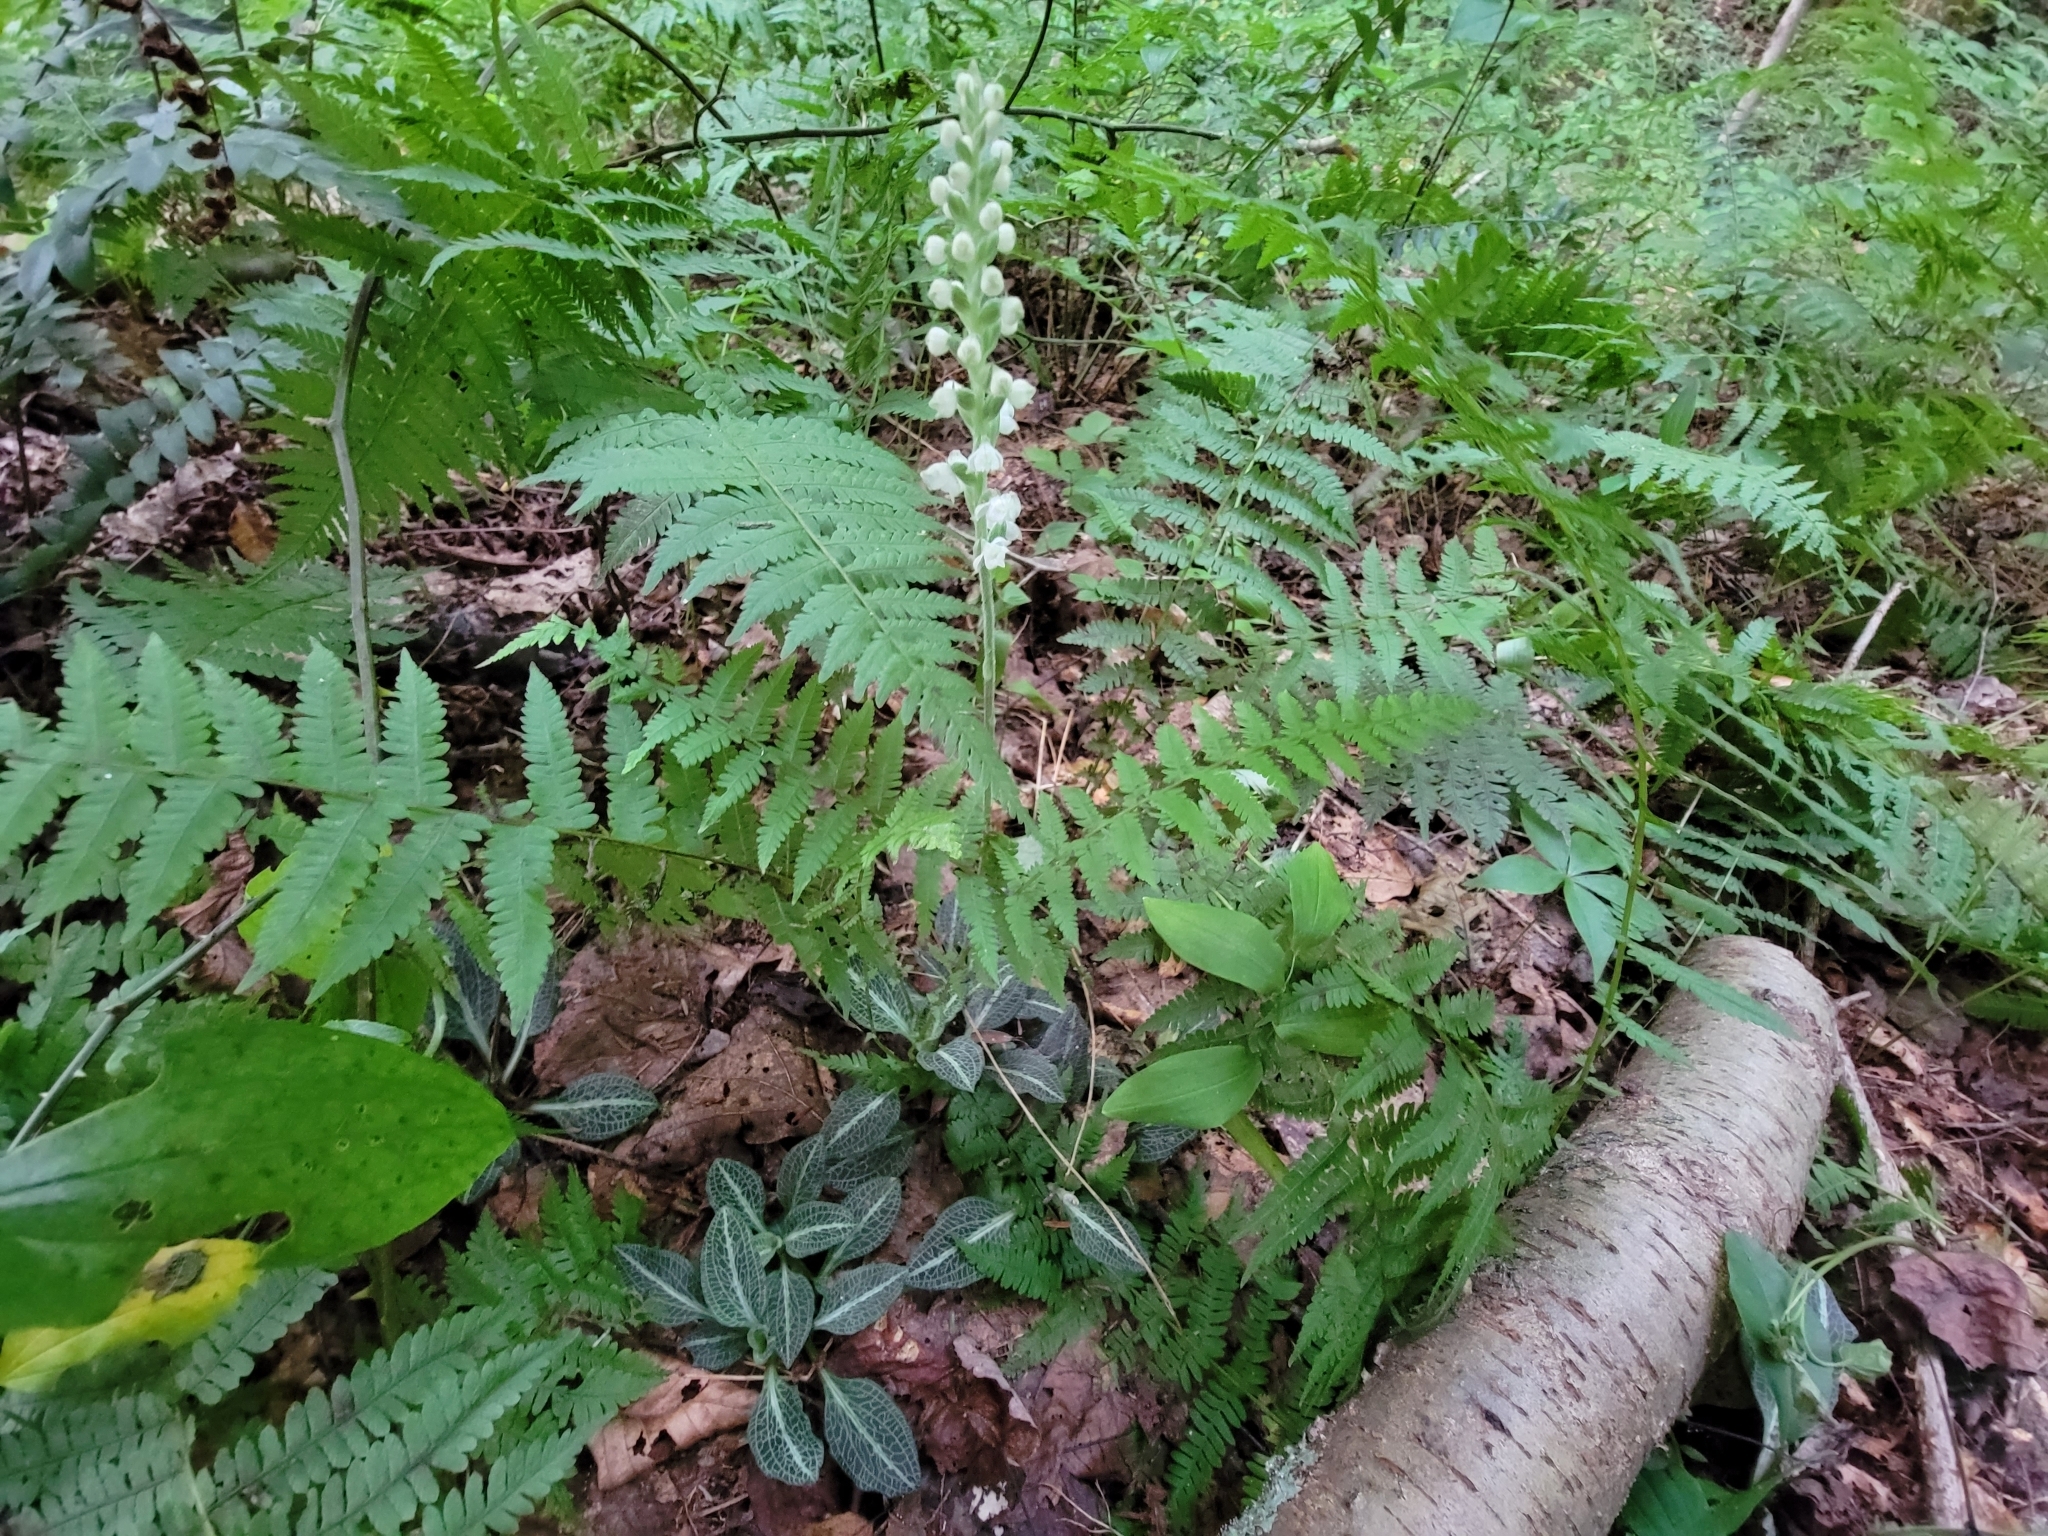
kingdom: Plantae
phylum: Tracheophyta
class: Liliopsida
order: Asparagales
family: Orchidaceae
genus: Goodyera
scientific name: Goodyera pubescens
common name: Downy rattlesnake-plantain
